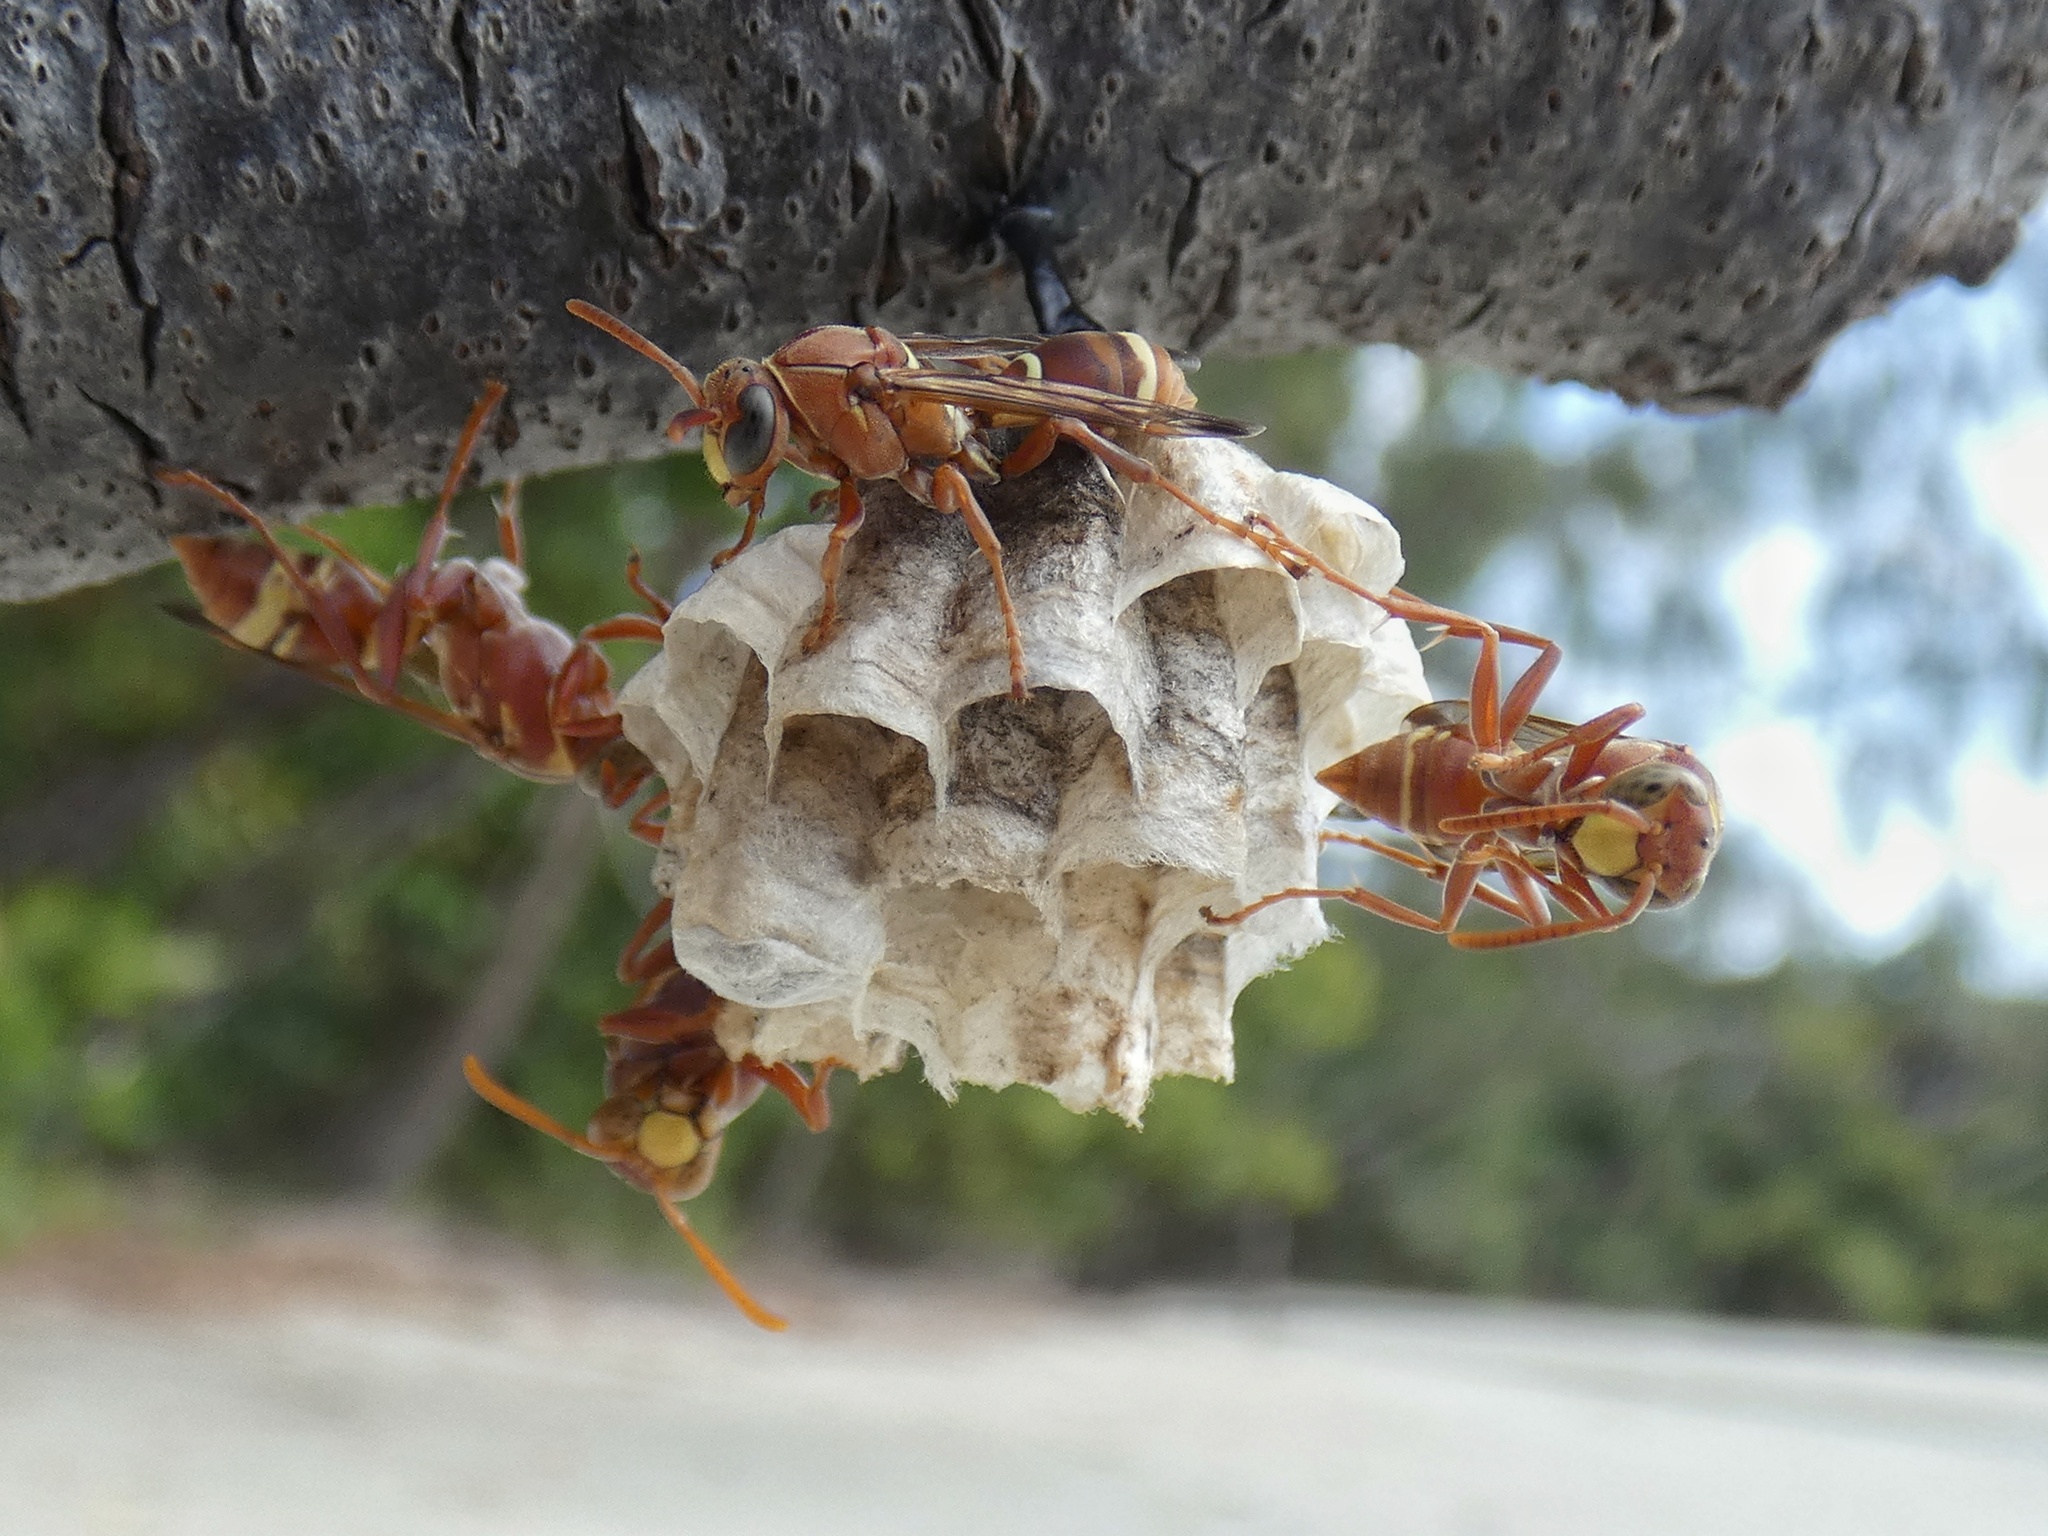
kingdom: Animalia
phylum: Arthropoda
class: Insecta
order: Hymenoptera
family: Eumenidae
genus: Polistes
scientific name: Polistes stigma
